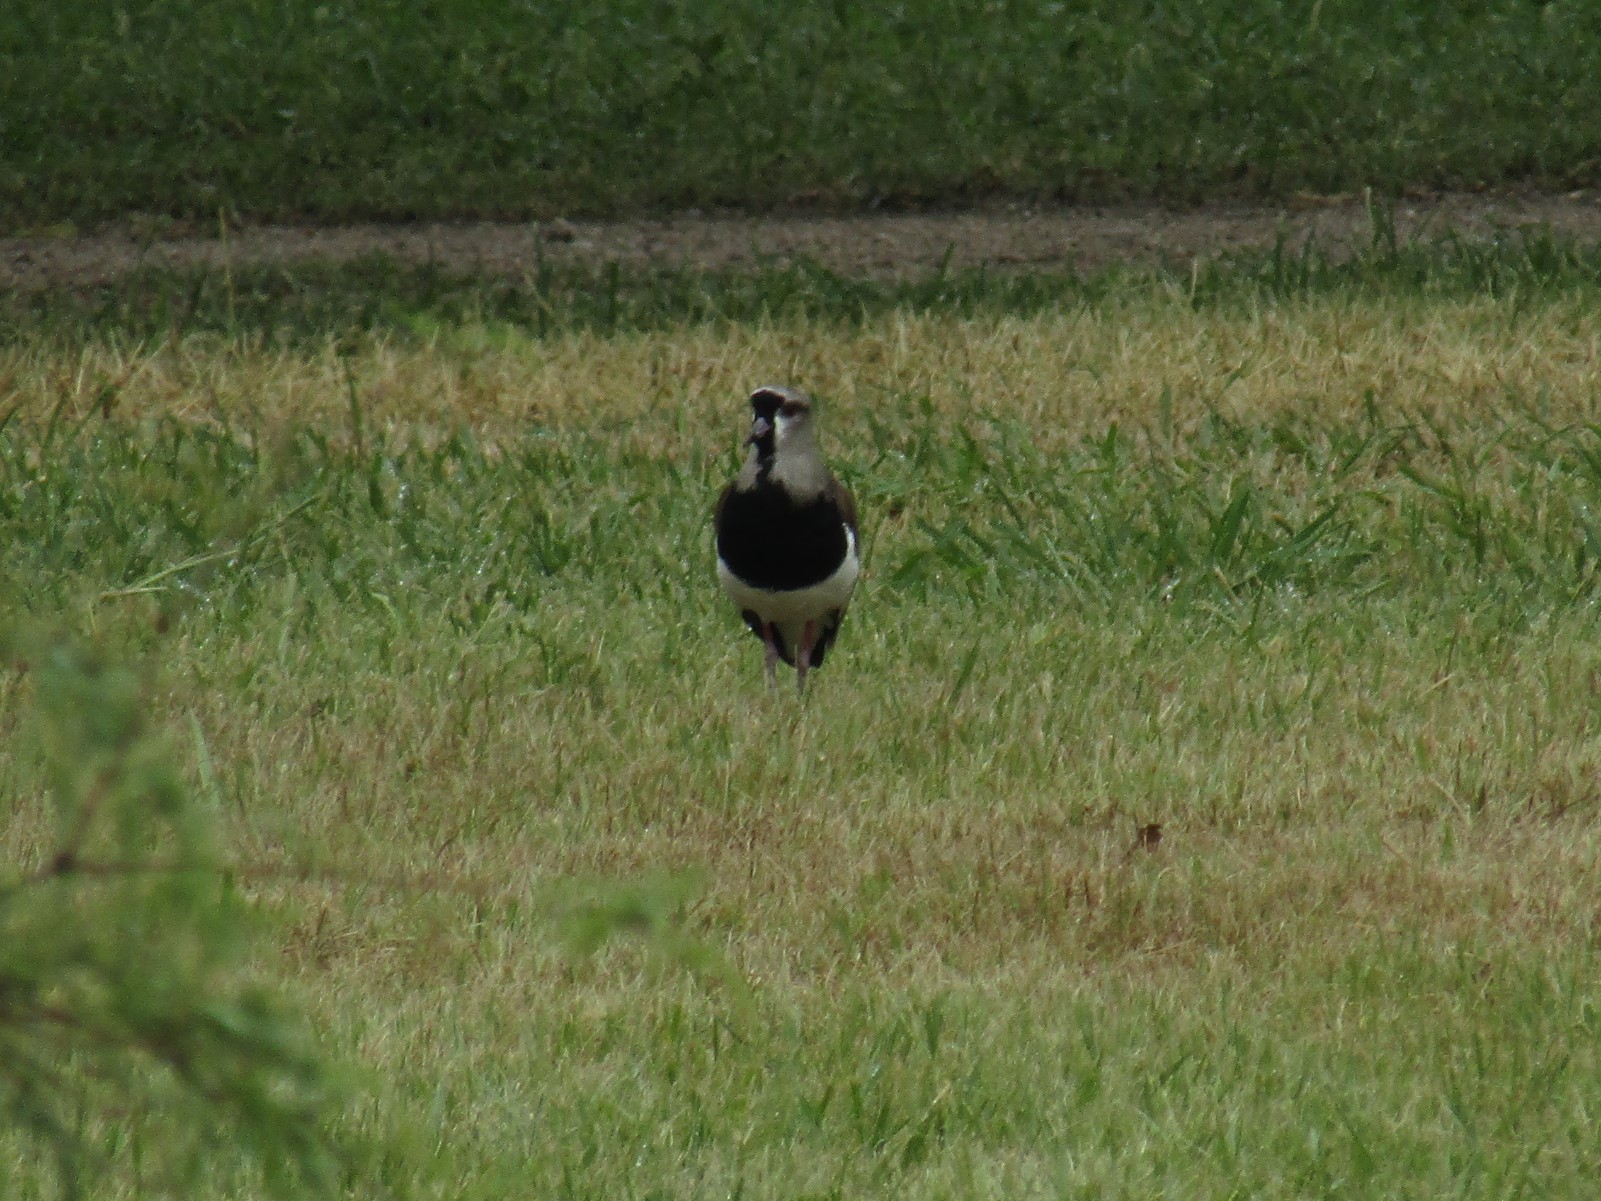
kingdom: Animalia
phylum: Chordata
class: Aves
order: Charadriiformes
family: Charadriidae
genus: Vanellus
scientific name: Vanellus chilensis
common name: Southern lapwing
